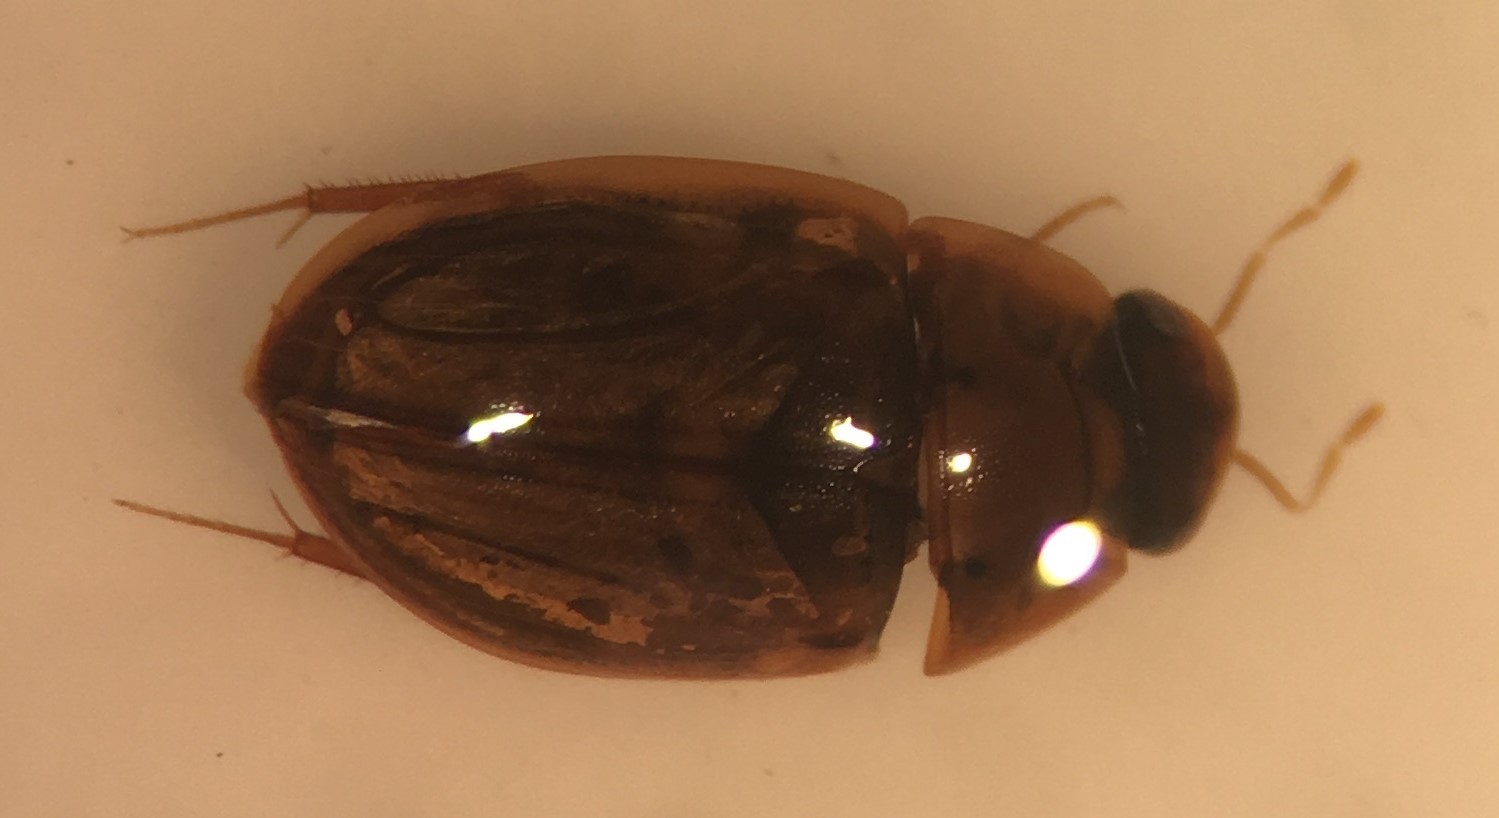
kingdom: Animalia
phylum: Arthropoda
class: Insecta
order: Coleoptera
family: Hydrophilidae
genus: Enochrus
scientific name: Enochrus ochraceus
